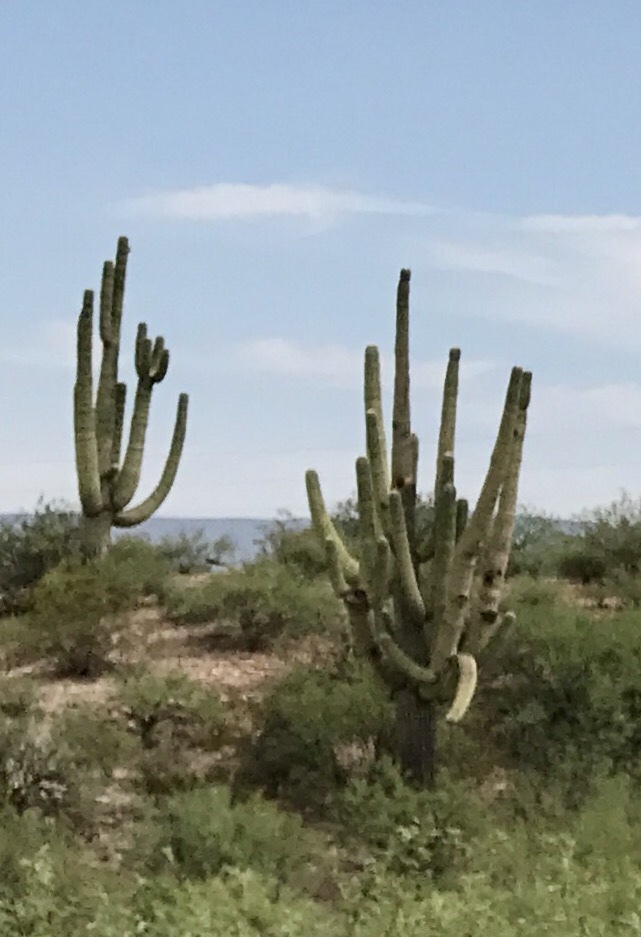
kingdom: Plantae
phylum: Tracheophyta
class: Magnoliopsida
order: Caryophyllales
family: Cactaceae
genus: Carnegiea
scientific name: Carnegiea gigantea
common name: Saguaro
